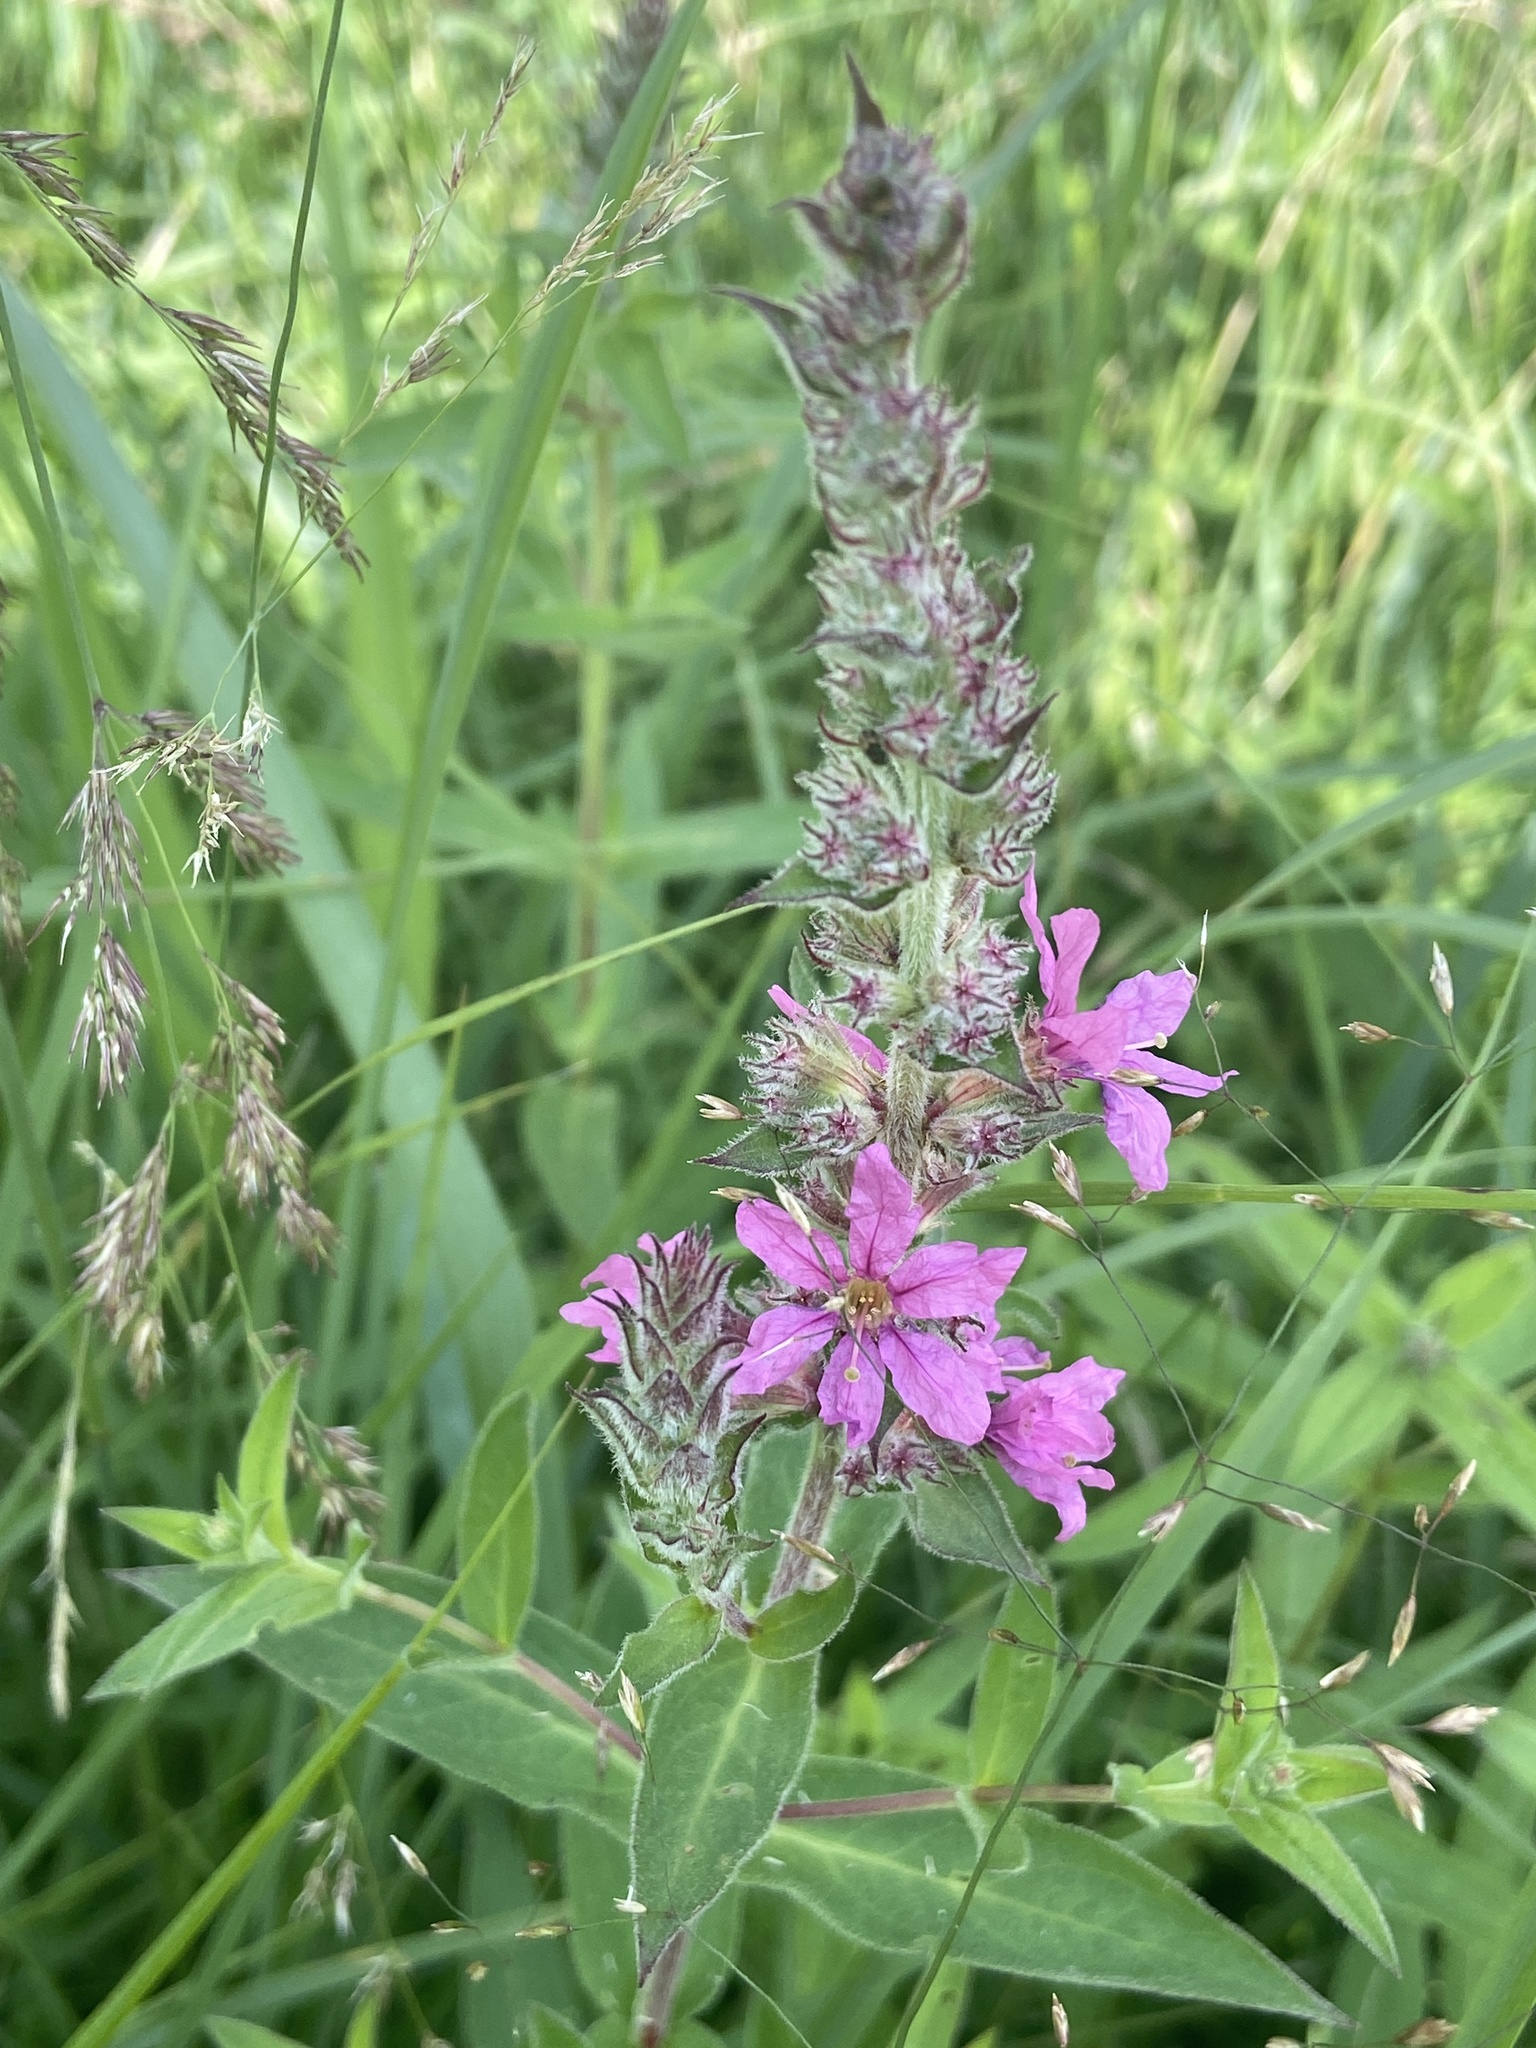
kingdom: Plantae
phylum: Tracheophyta
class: Magnoliopsida
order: Myrtales
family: Lythraceae
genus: Lythrum
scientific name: Lythrum salicaria
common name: Purple loosestrife
